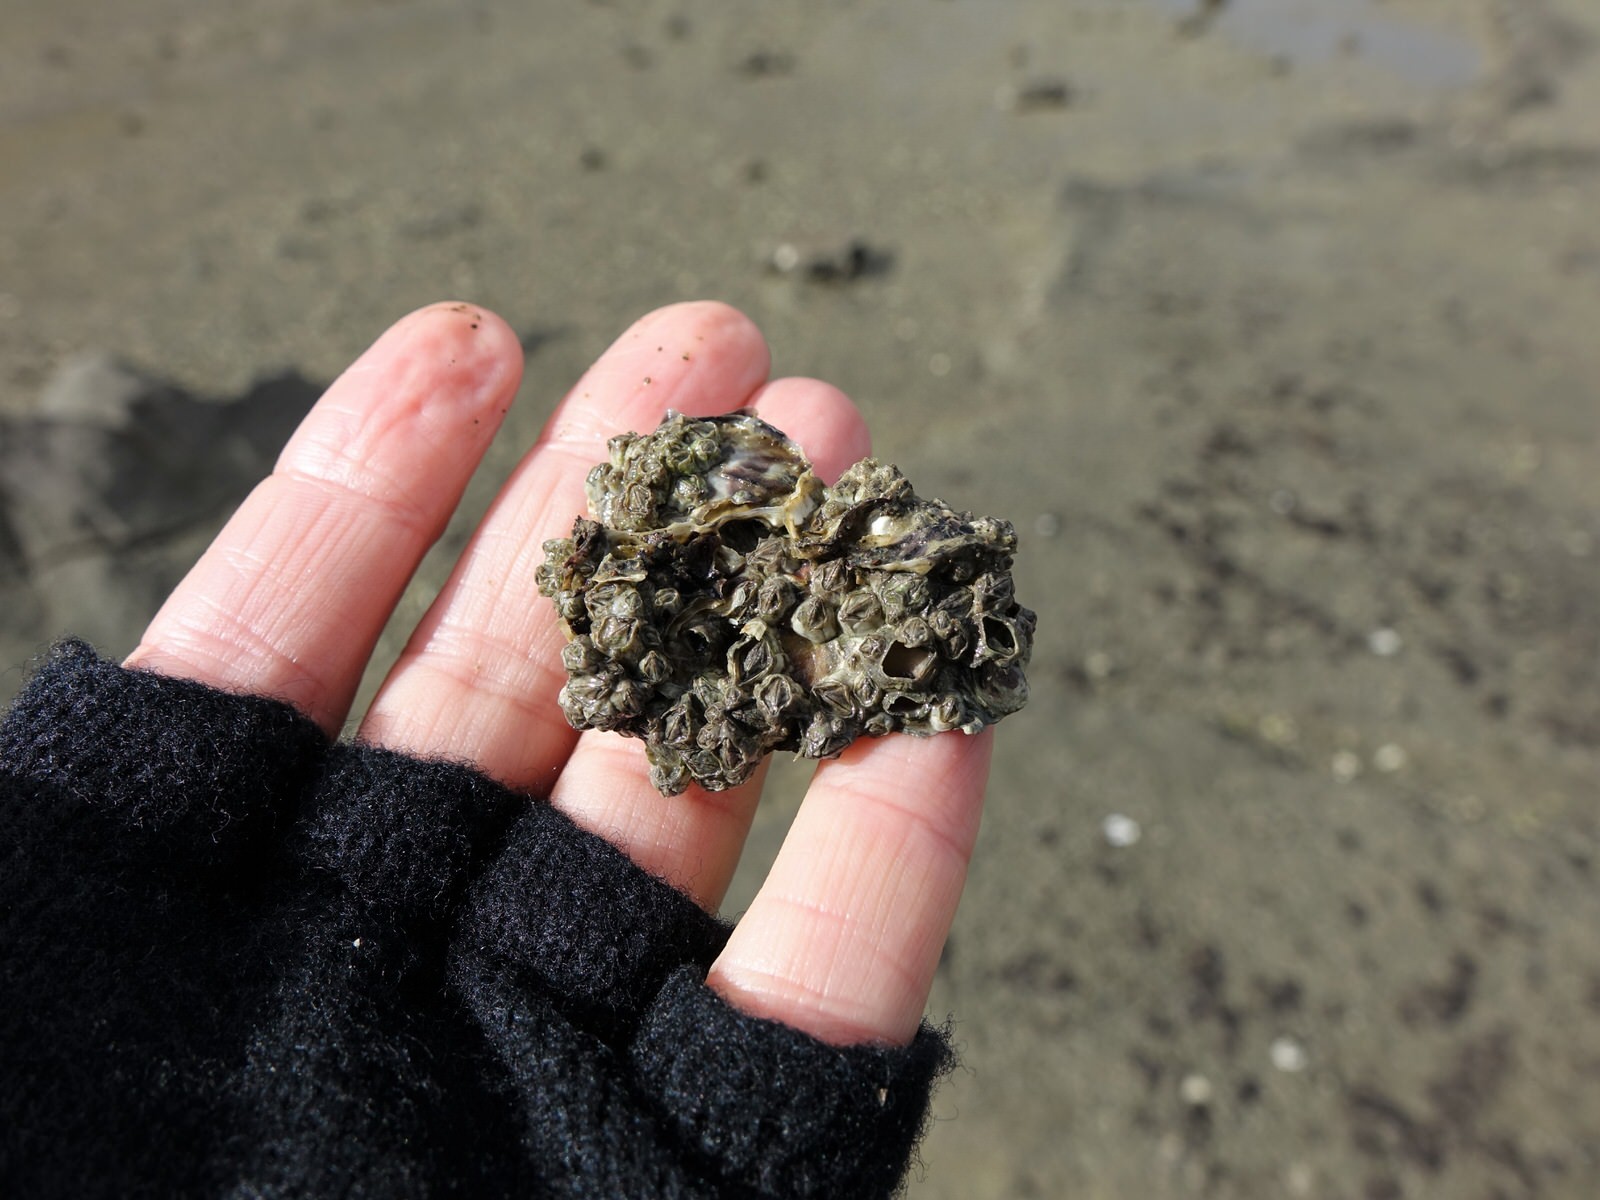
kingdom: Animalia
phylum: Mollusca
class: Gastropoda
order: Neogastropoda
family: Muricidae
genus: Haustrum
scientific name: Haustrum scobina
